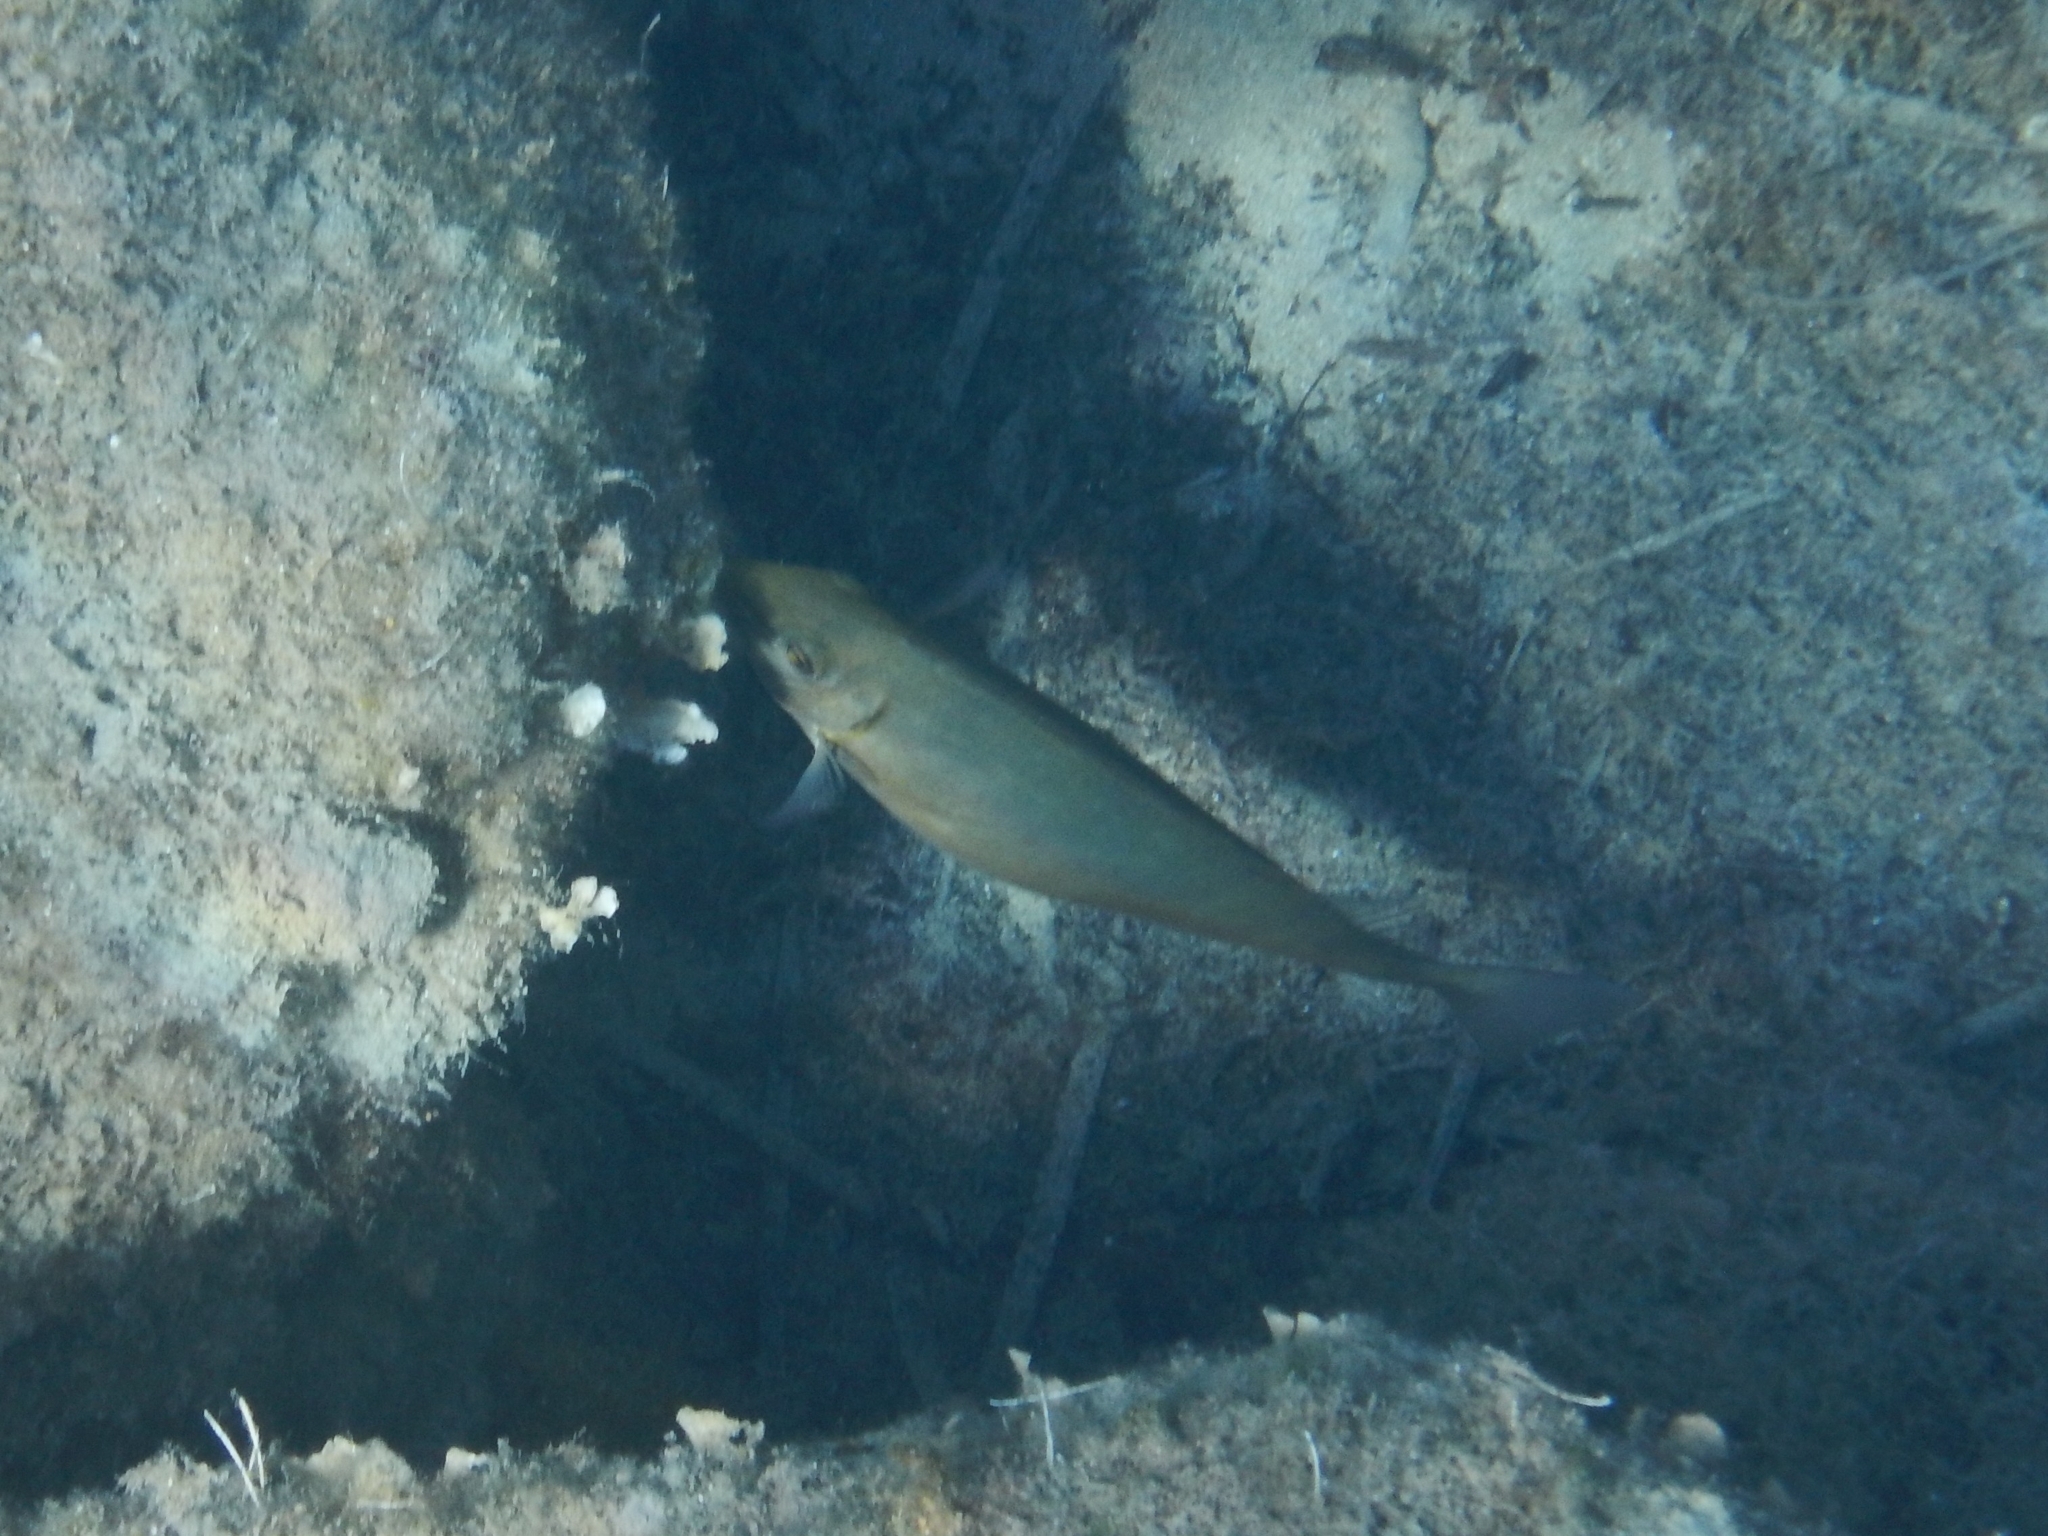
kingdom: Animalia
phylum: Chordata
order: Perciformes
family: Siganidae
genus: Siganus
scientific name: Siganus rivulatus
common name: Marbled spinefoot
